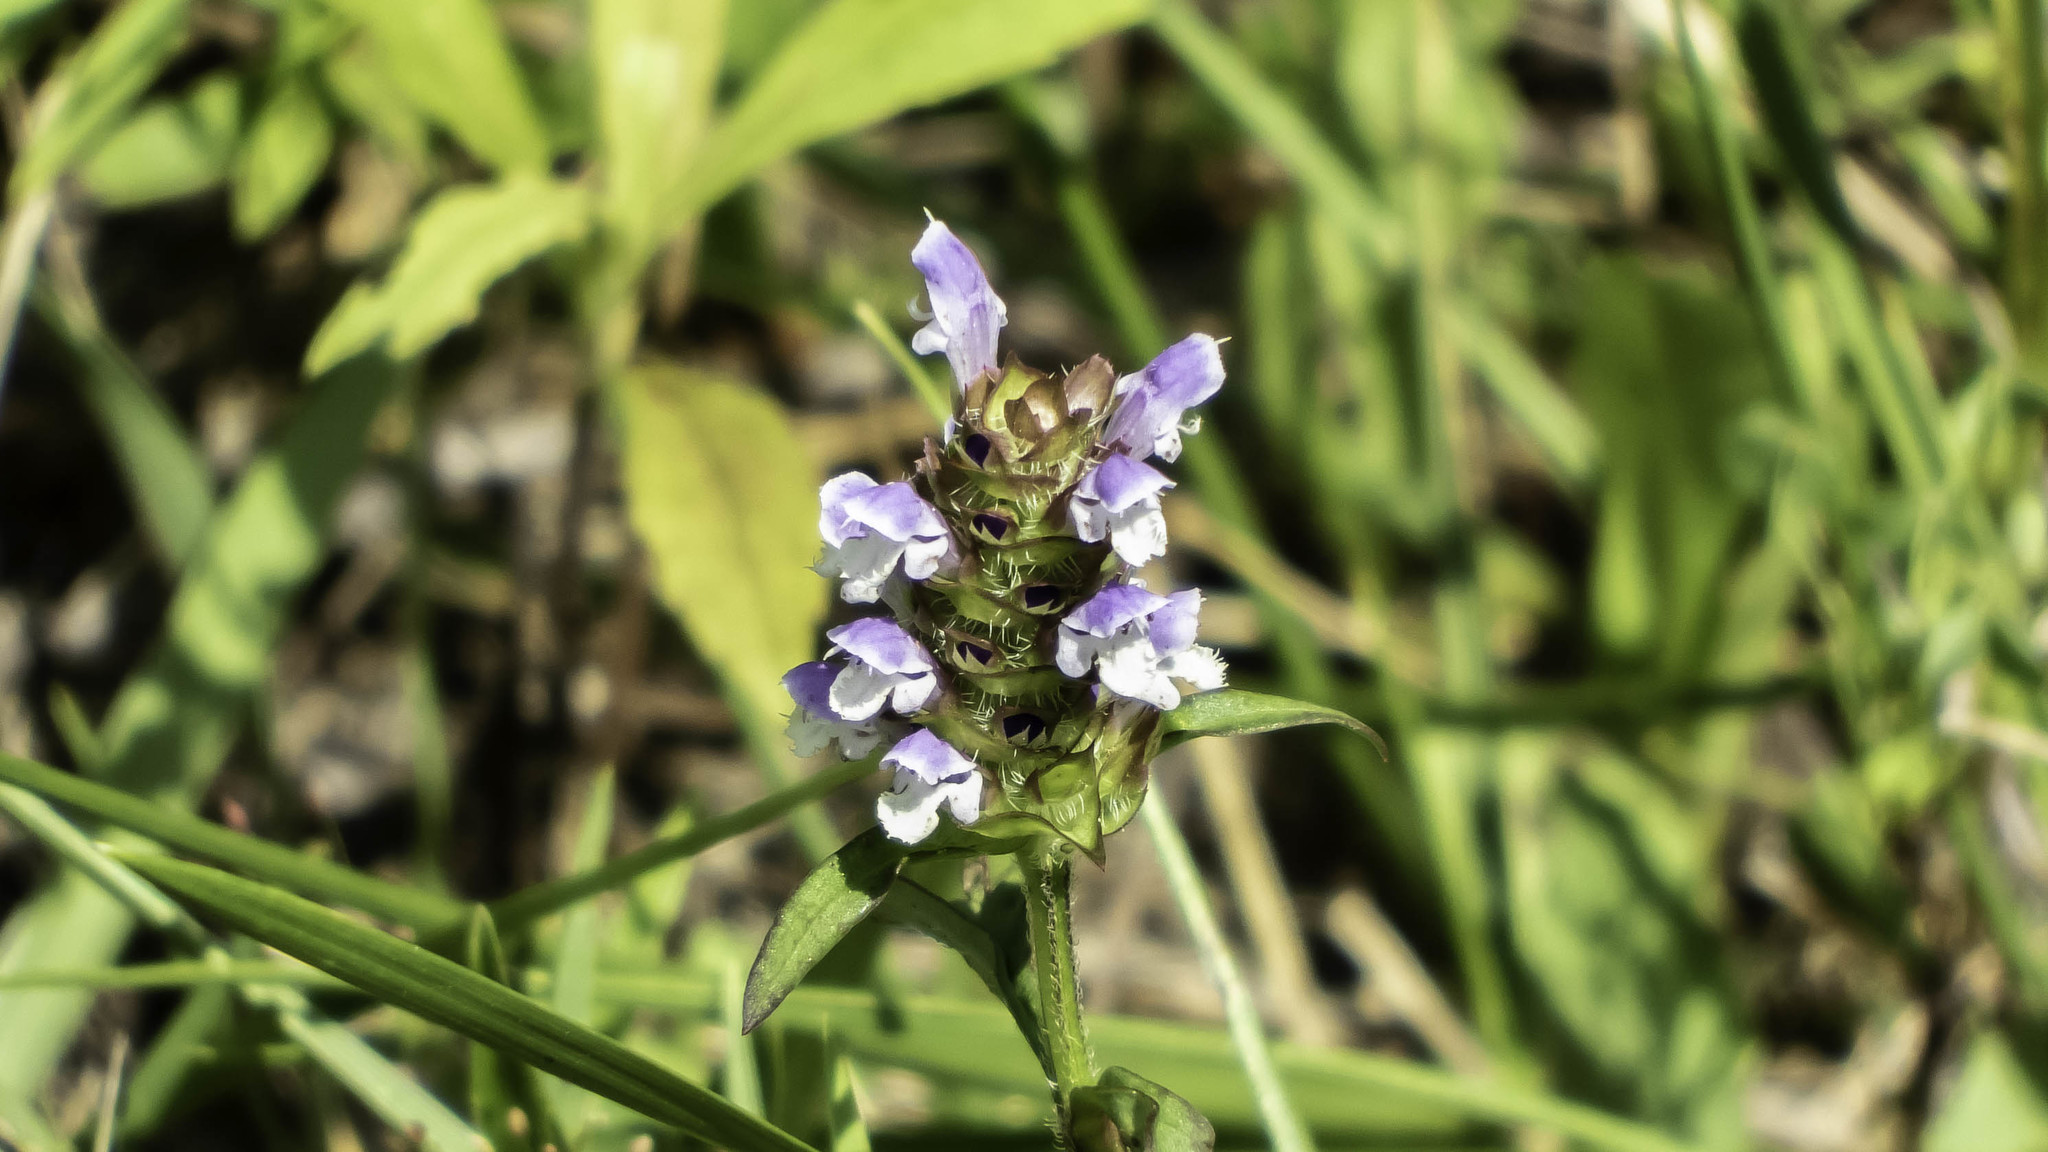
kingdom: Plantae
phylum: Tracheophyta
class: Magnoliopsida
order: Lamiales
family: Lamiaceae
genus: Prunella
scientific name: Prunella vulgaris
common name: Heal-all
